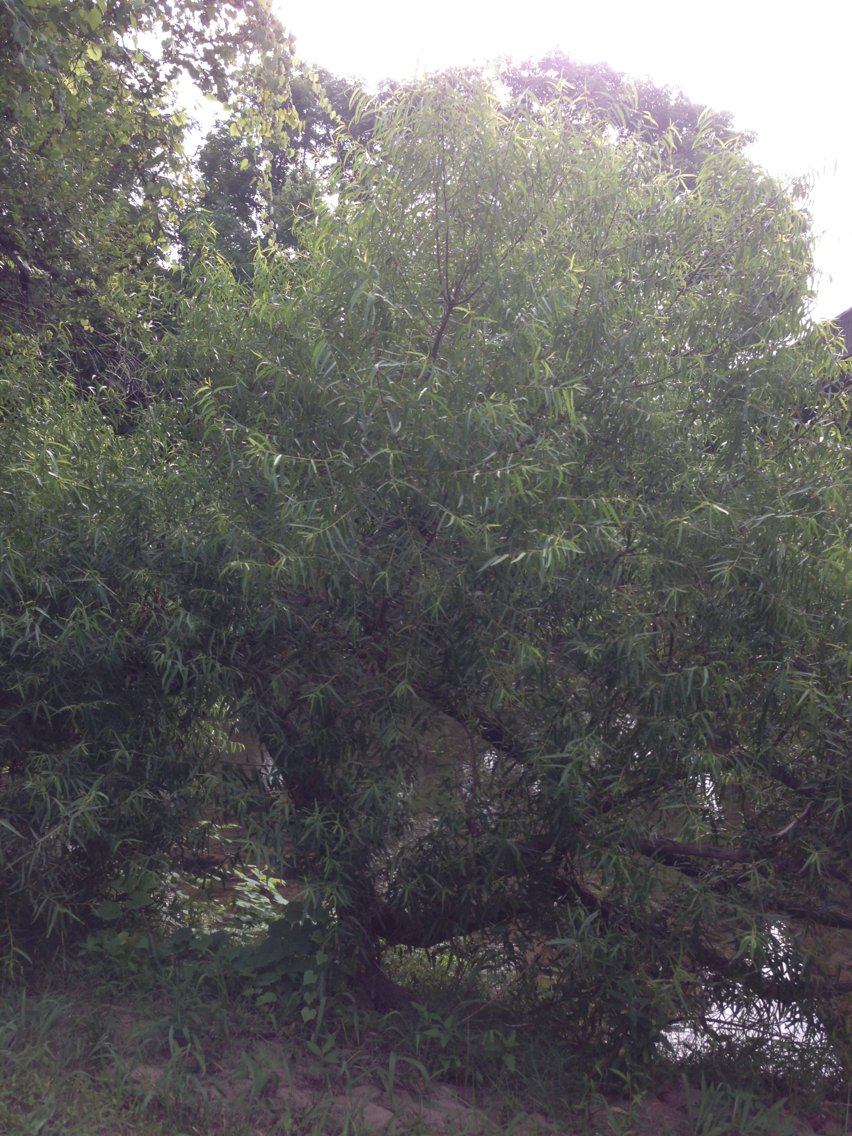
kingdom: Plantae
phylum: Tracheophyta
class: Magnoliopsida
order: Malpighiales
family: Salicaceae
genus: Salix
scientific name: Salix
